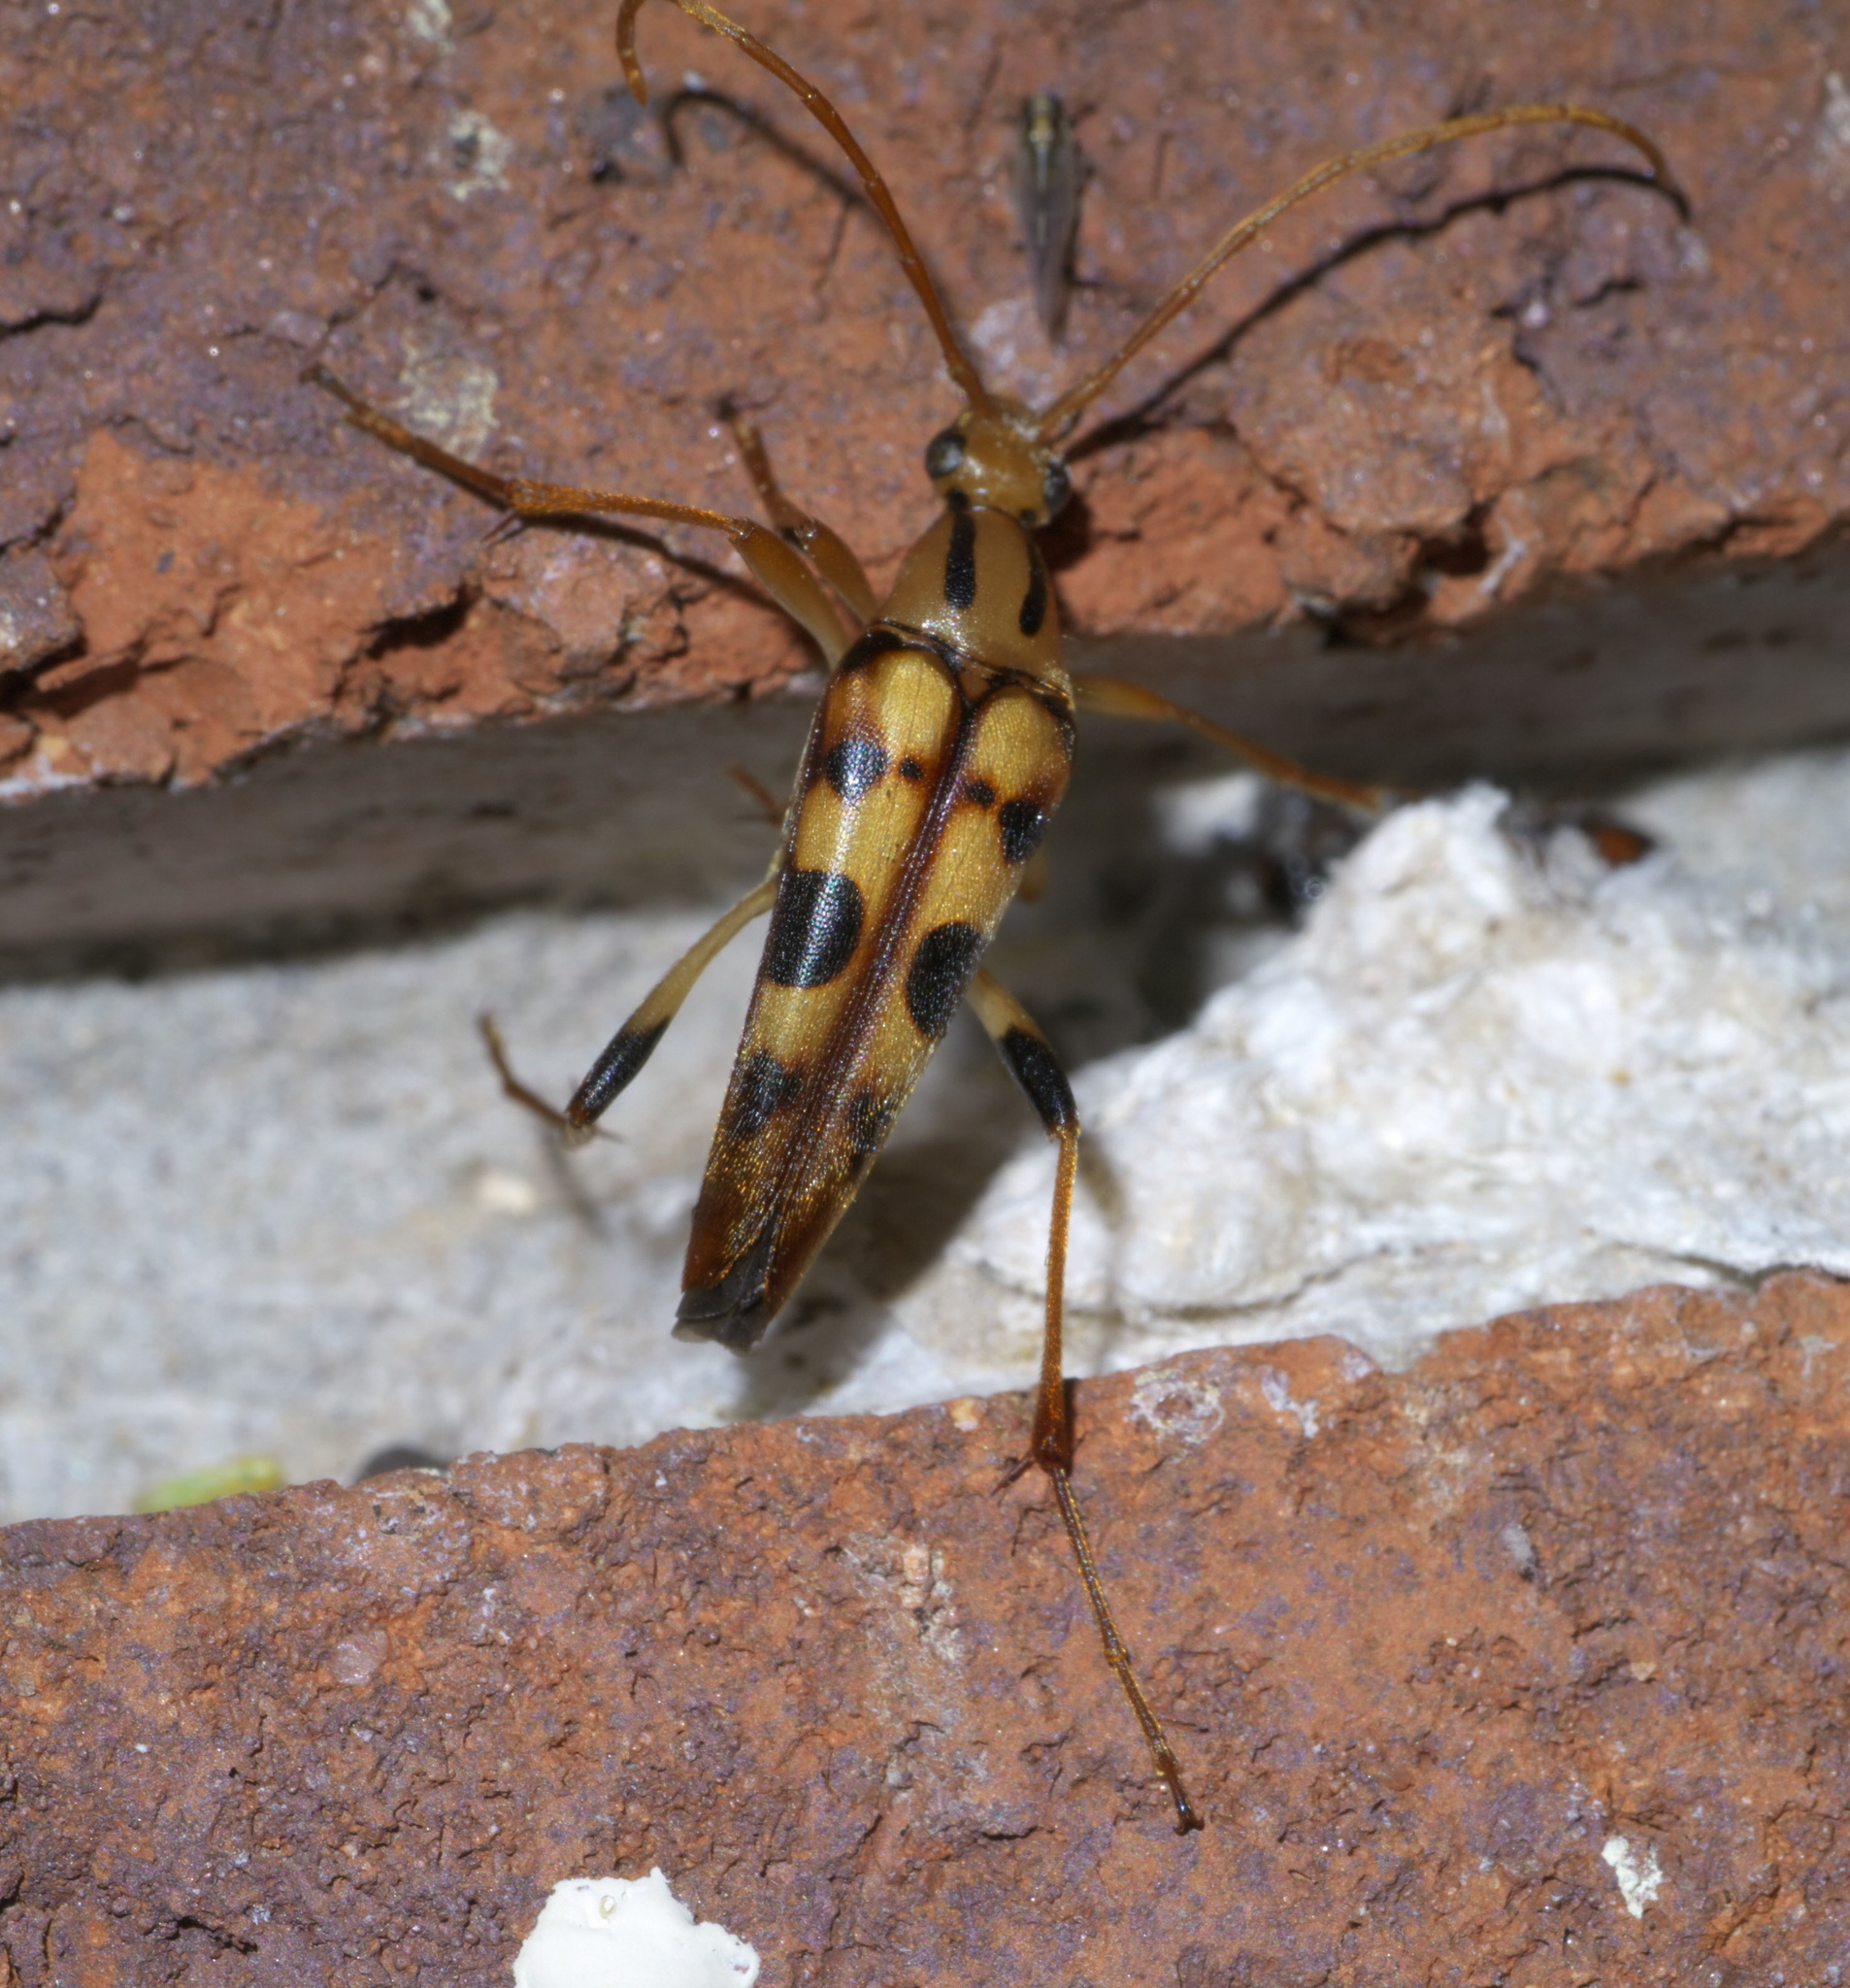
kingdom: Animalia
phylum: Arthropoda
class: Insecta
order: Coleoptera
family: Cerambycidae
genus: Strangalia
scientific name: Strangalia luteicornis
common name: Yellow-horned flower longhorn beetle
